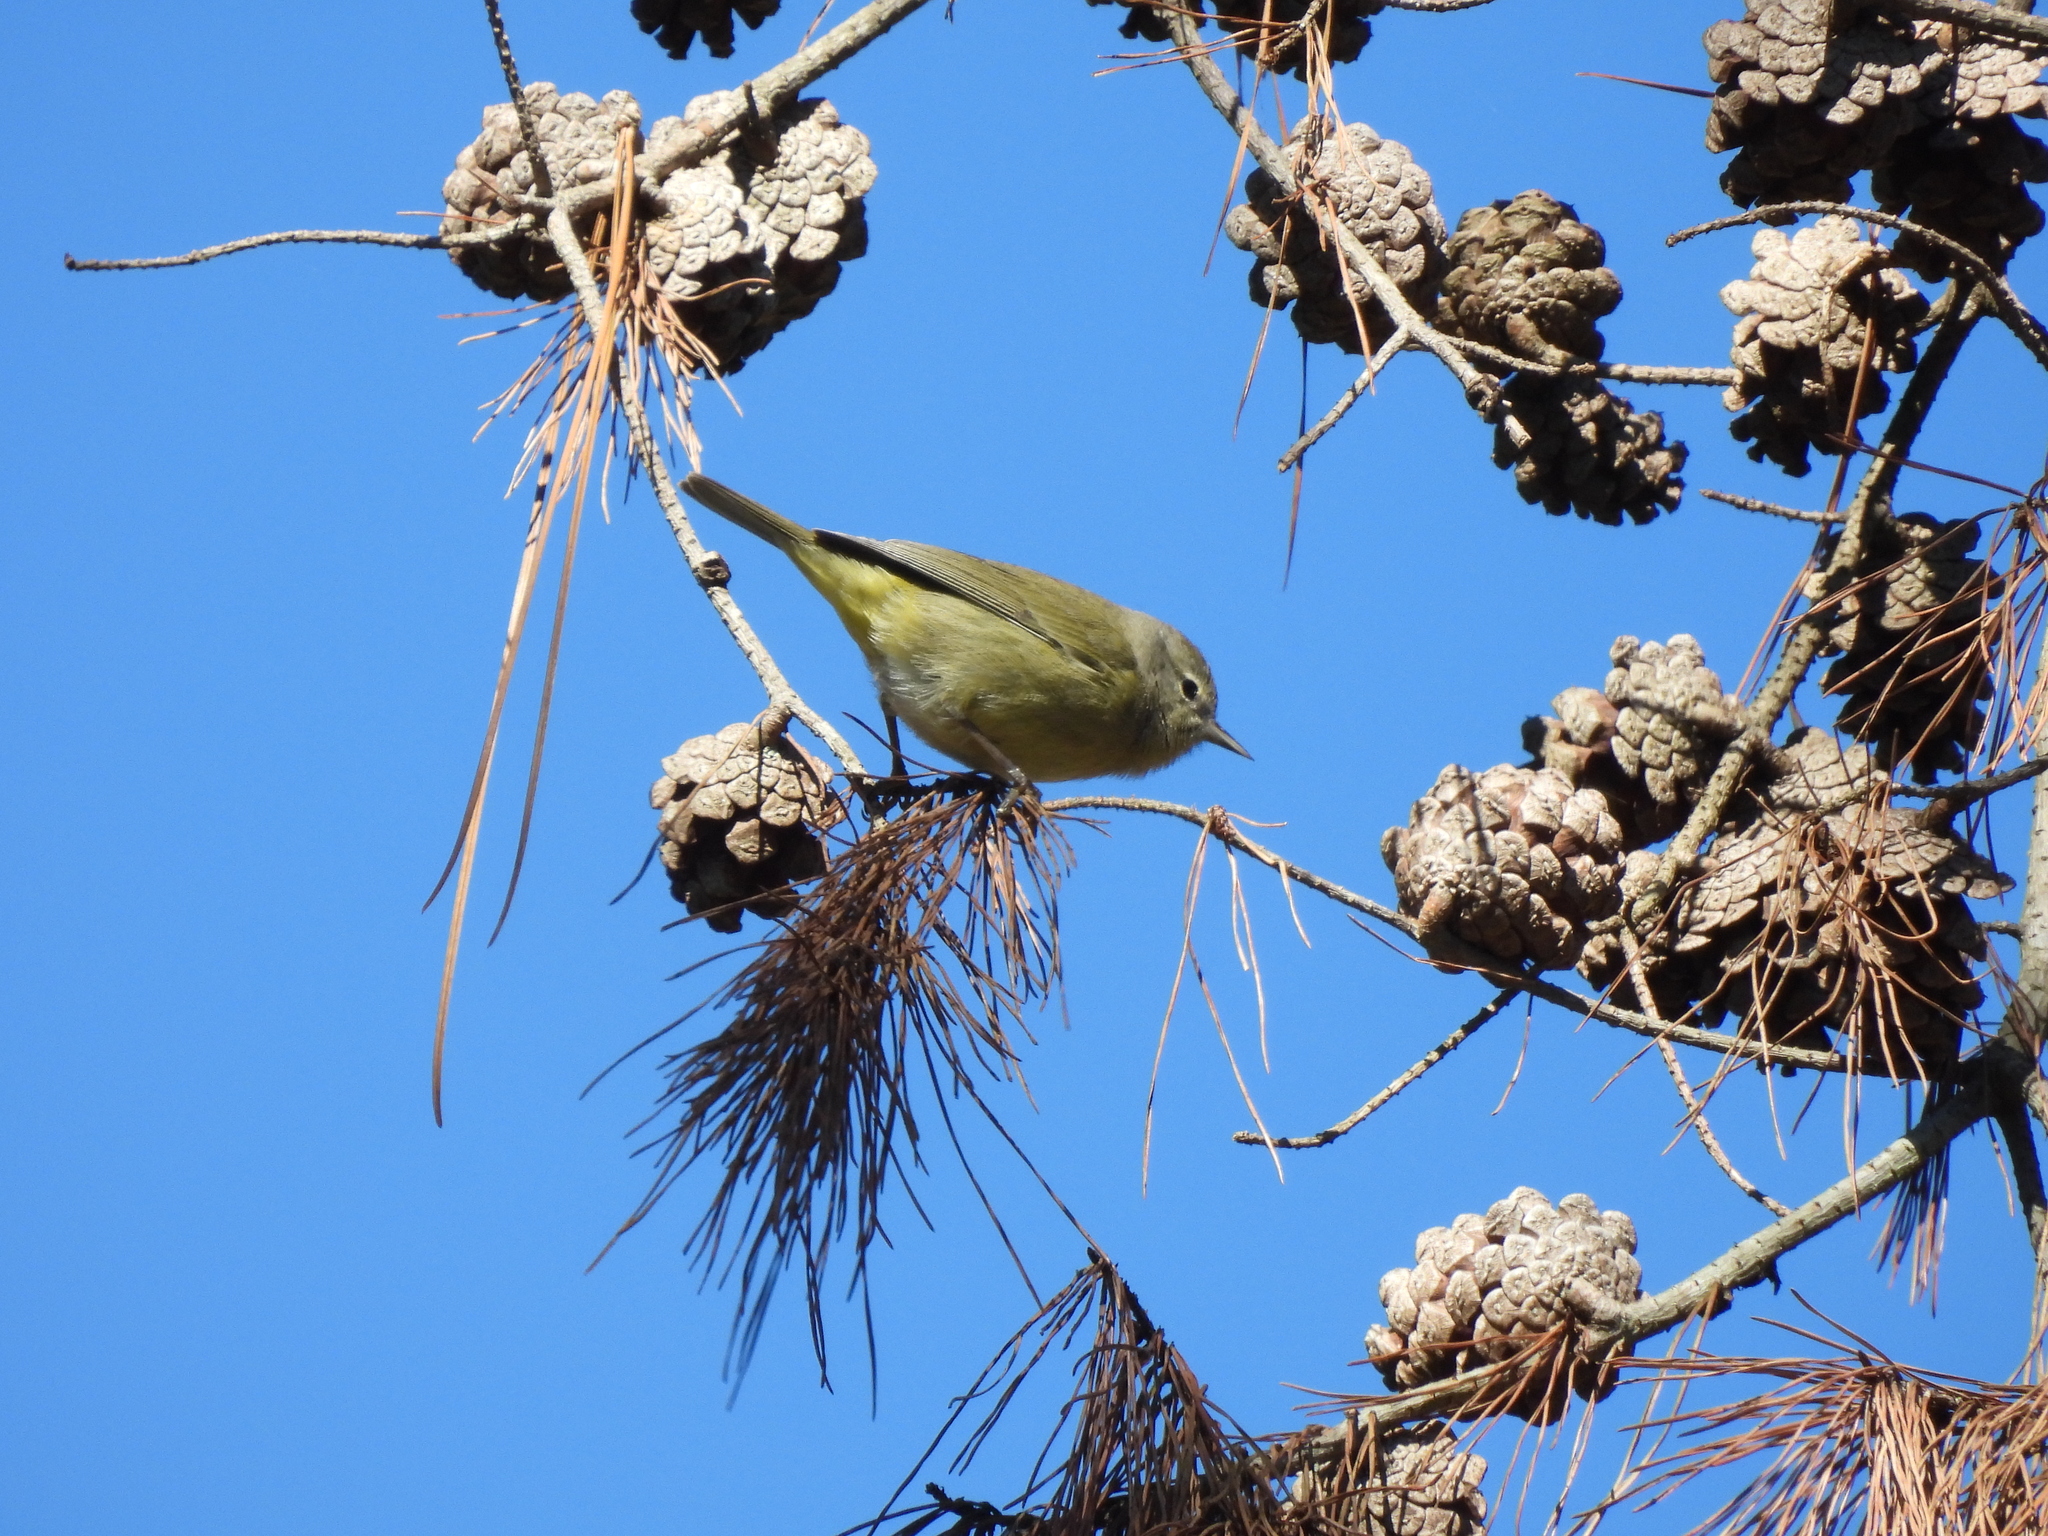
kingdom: Animalia
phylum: Chordata
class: Aves
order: Passeriformes
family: Parulidae
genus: Leiothlypis
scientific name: Leiothlypis celata
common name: Orange-crowned warbler
